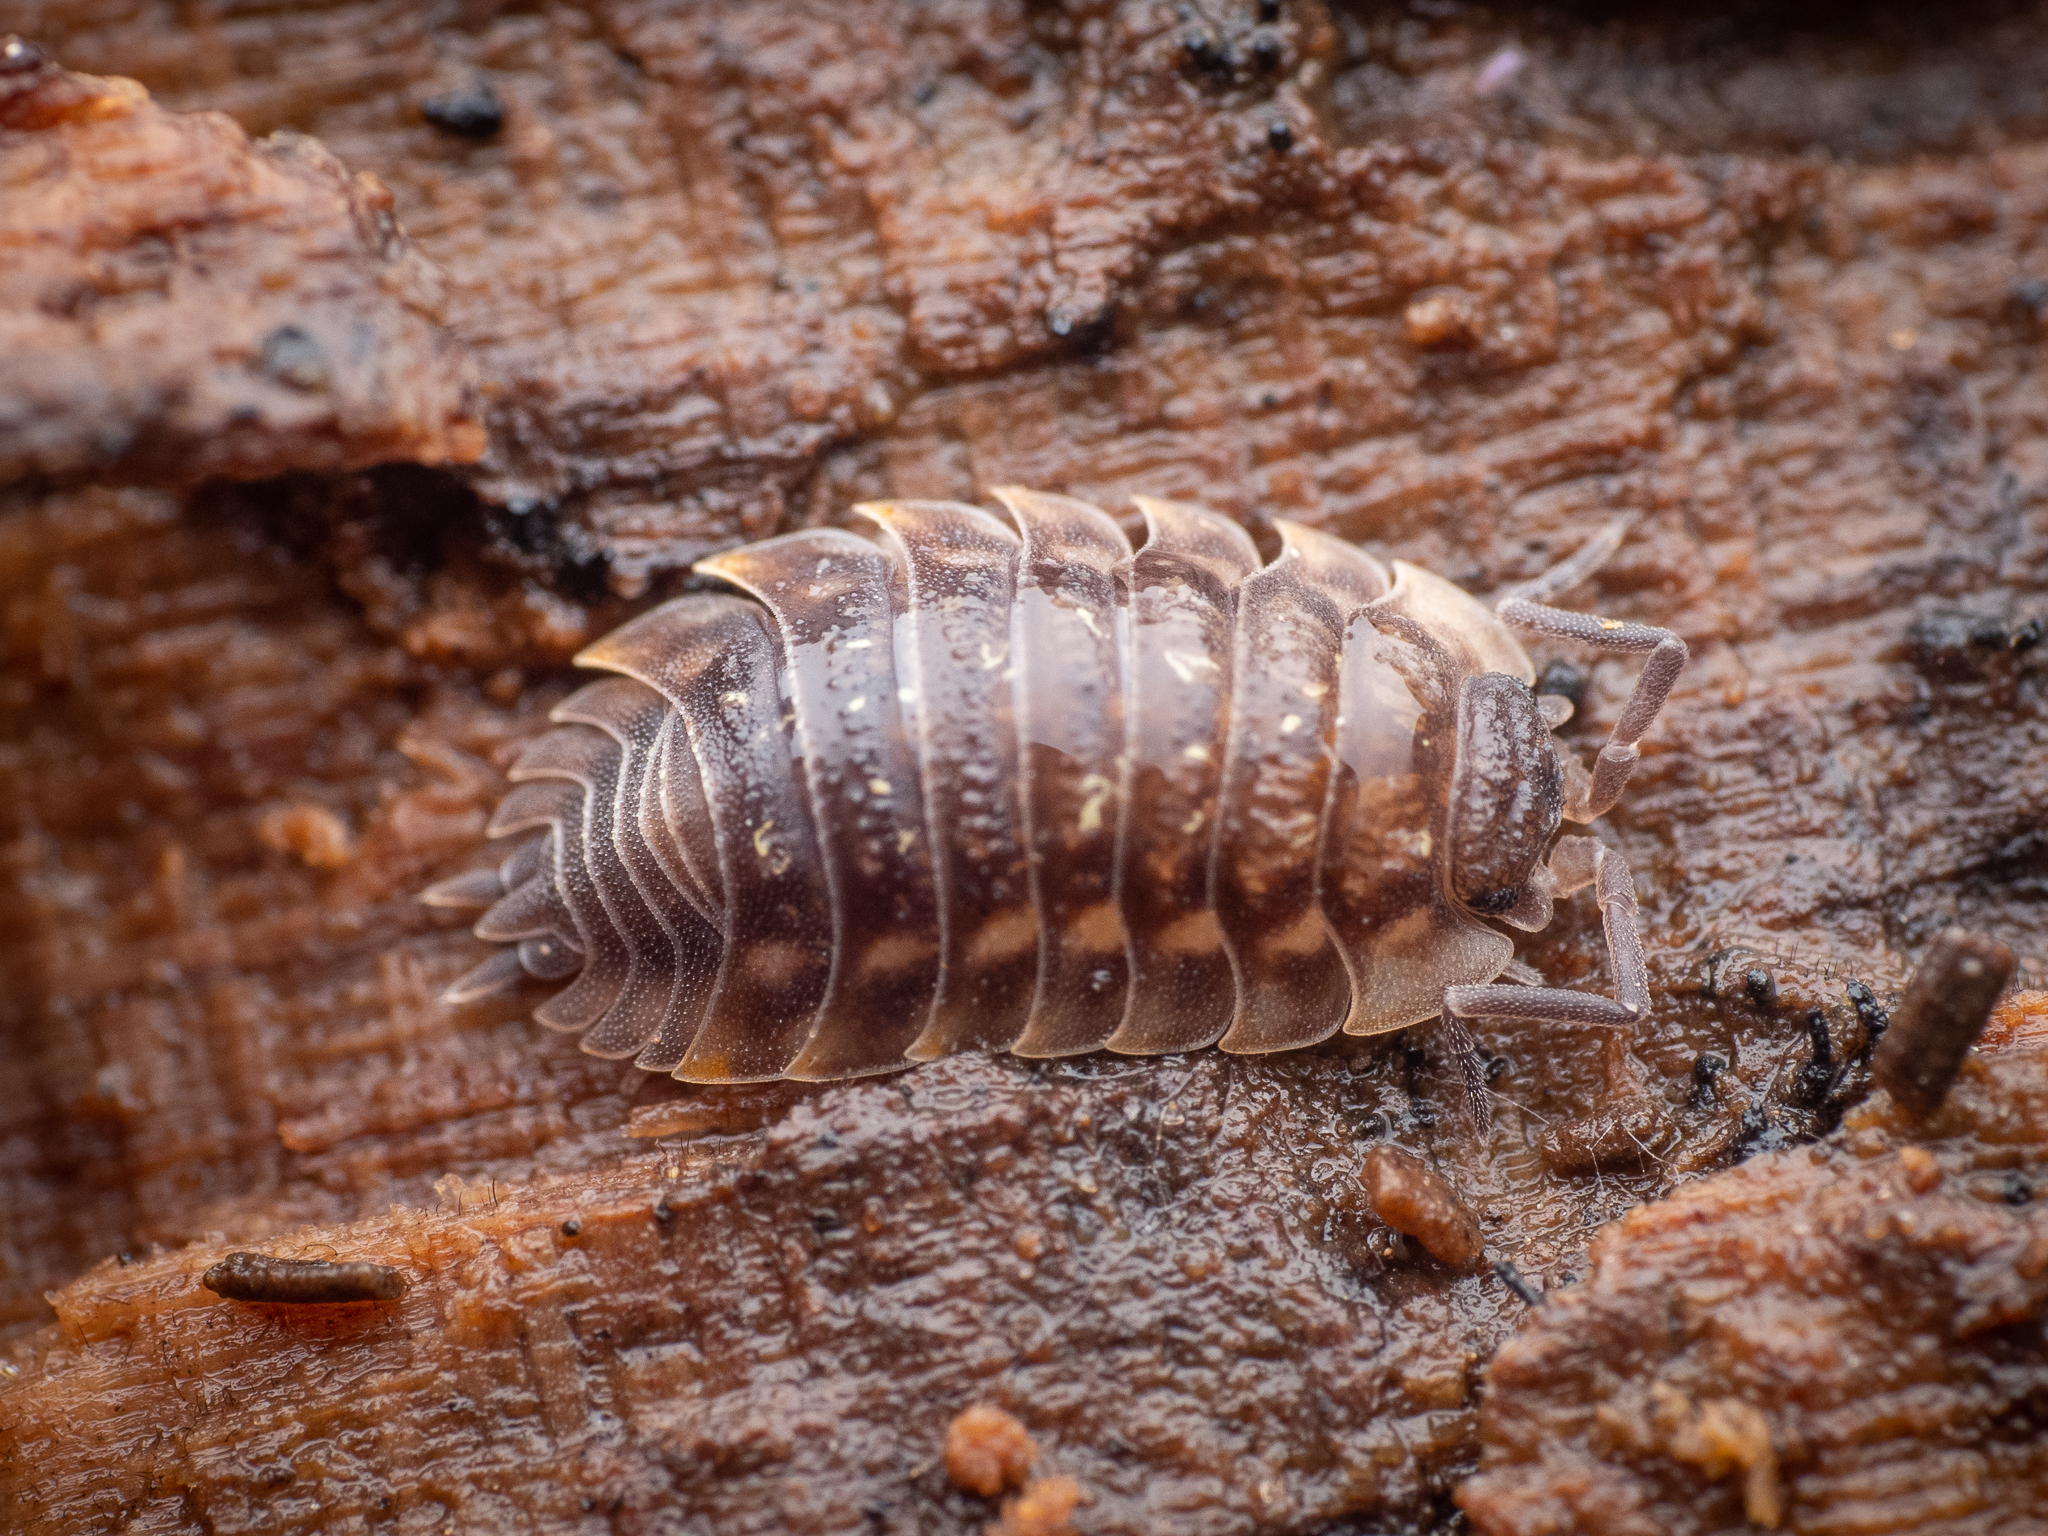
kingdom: Animalia
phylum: Arthropoda
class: Malacostraca
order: Isopoda
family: Oniscidae
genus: Oniscus
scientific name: Oniscus asellus
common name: Common shiny woodlouse
